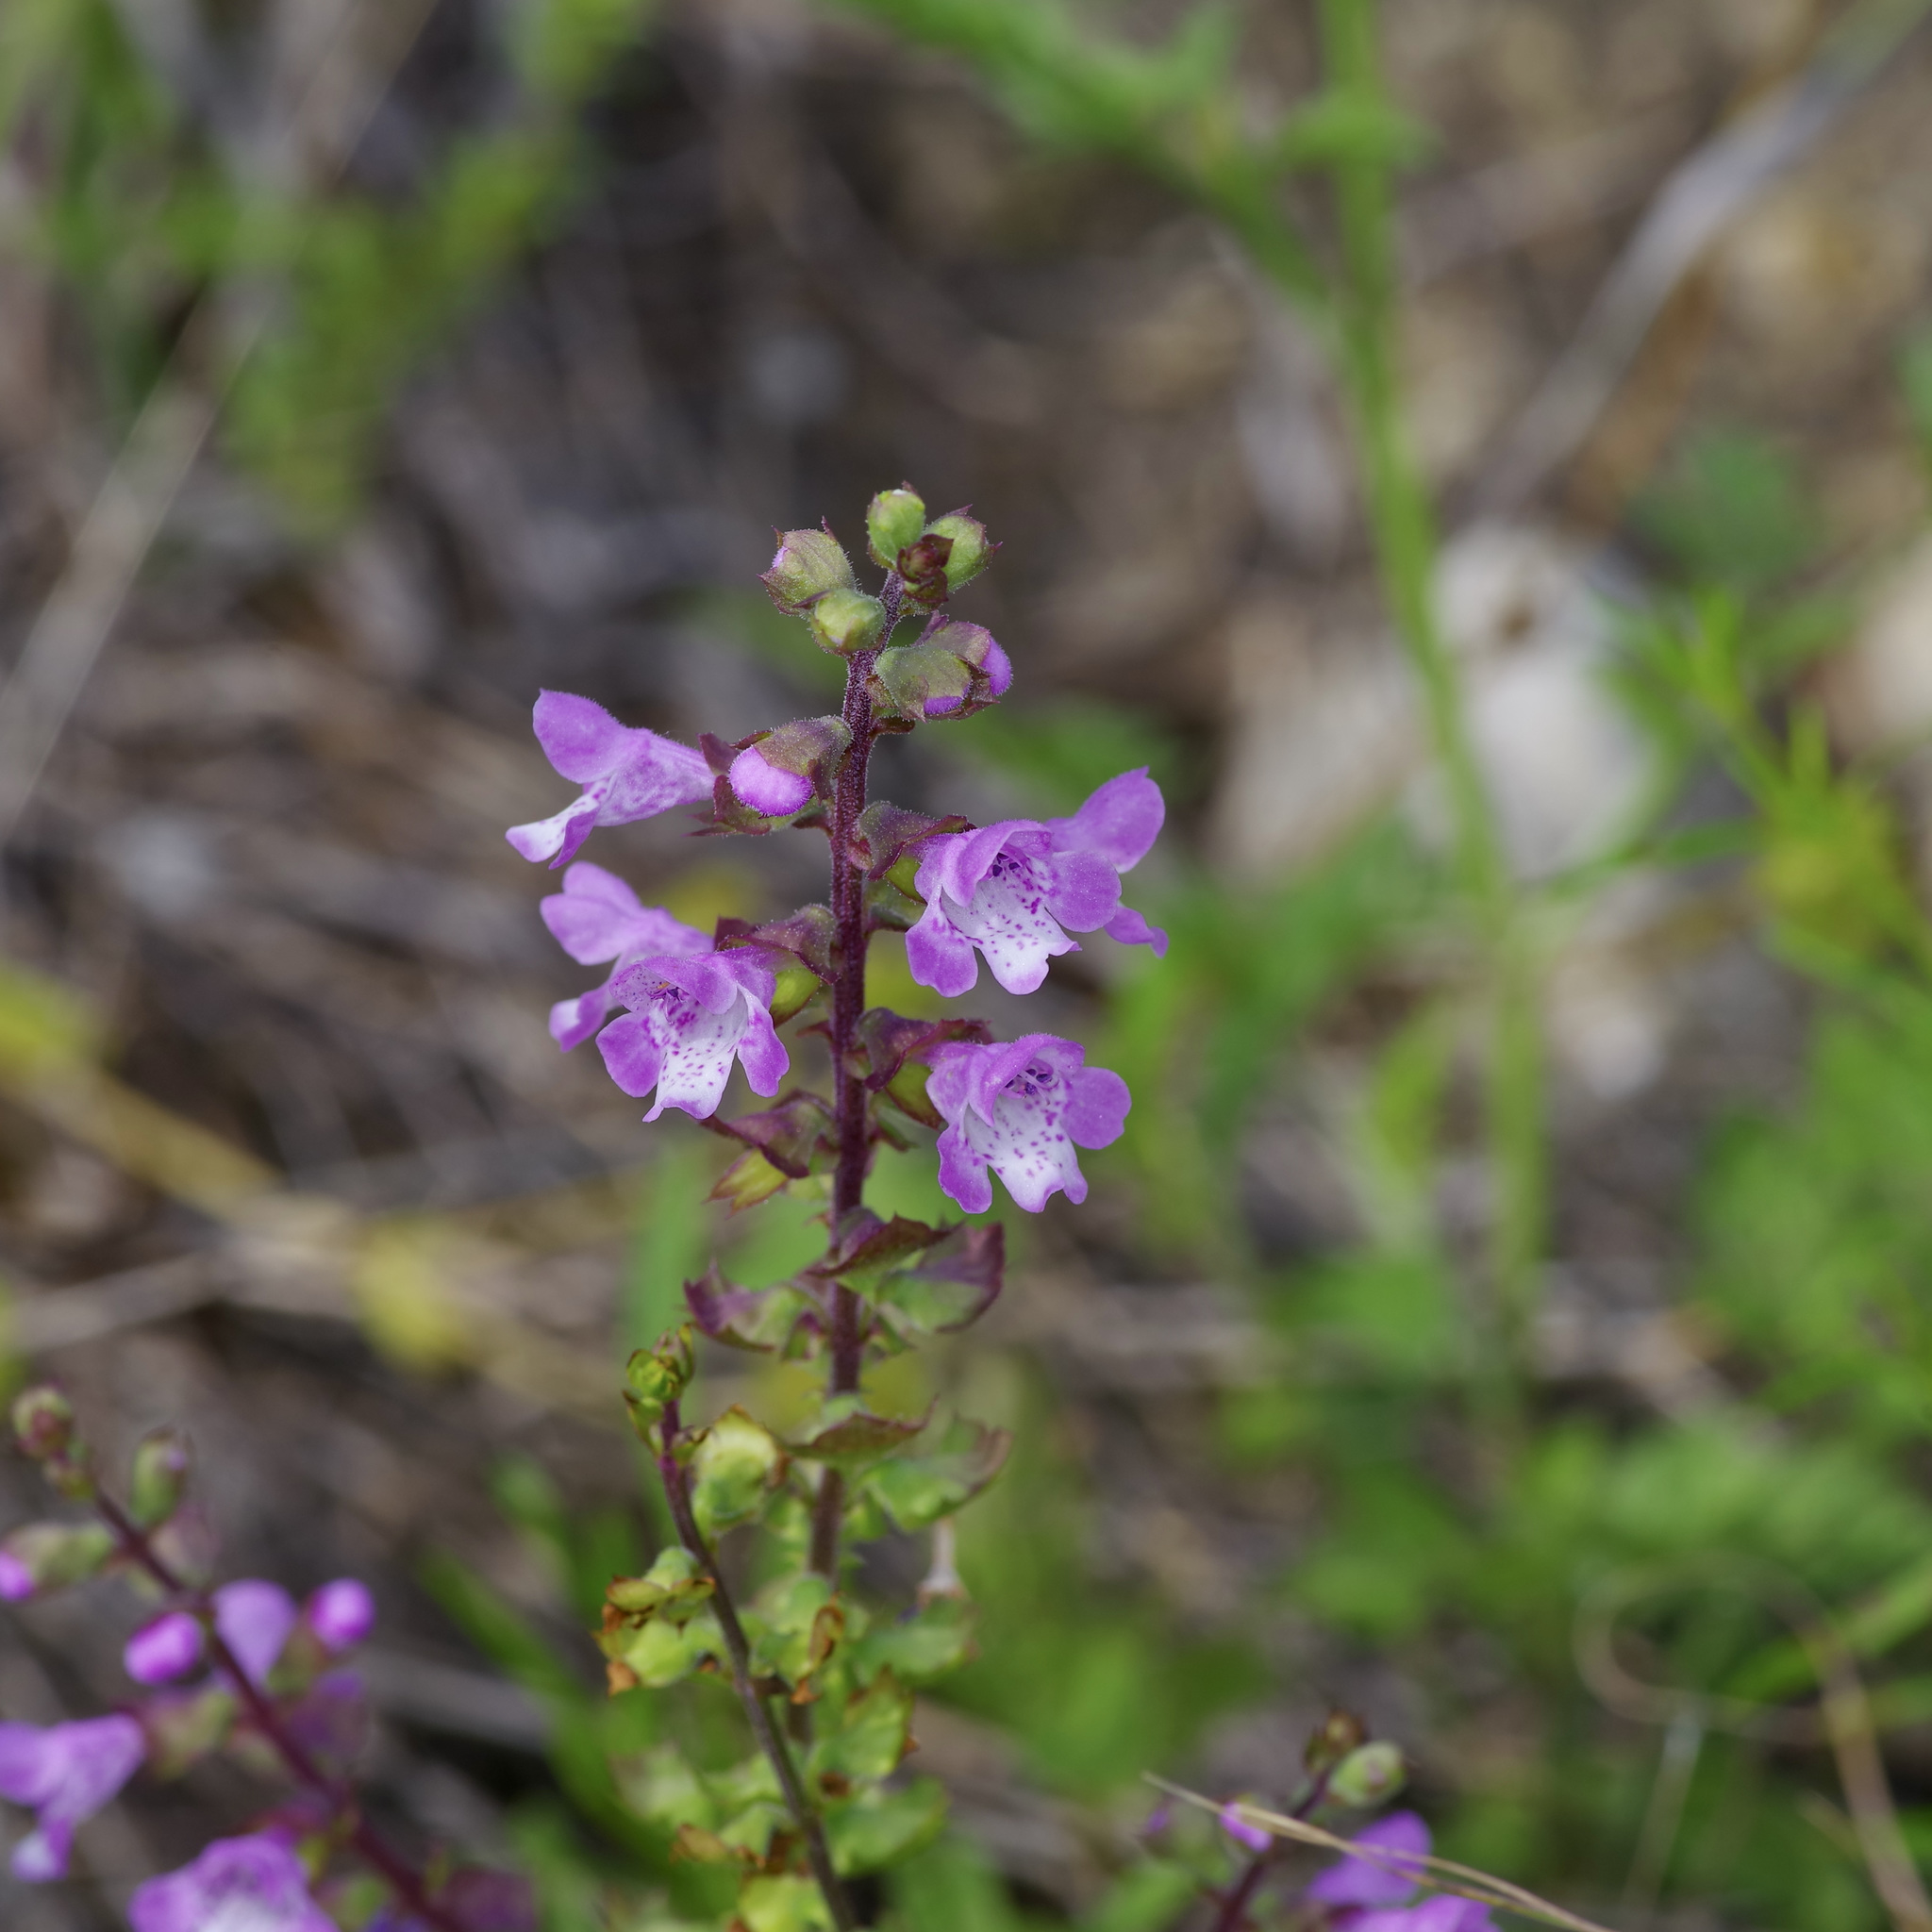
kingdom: Plantae
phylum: Tracheophyta
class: Magnoliopsida
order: Lamiales
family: Lamiaceae
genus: Warnockia
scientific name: Warnockia scutellarioides
